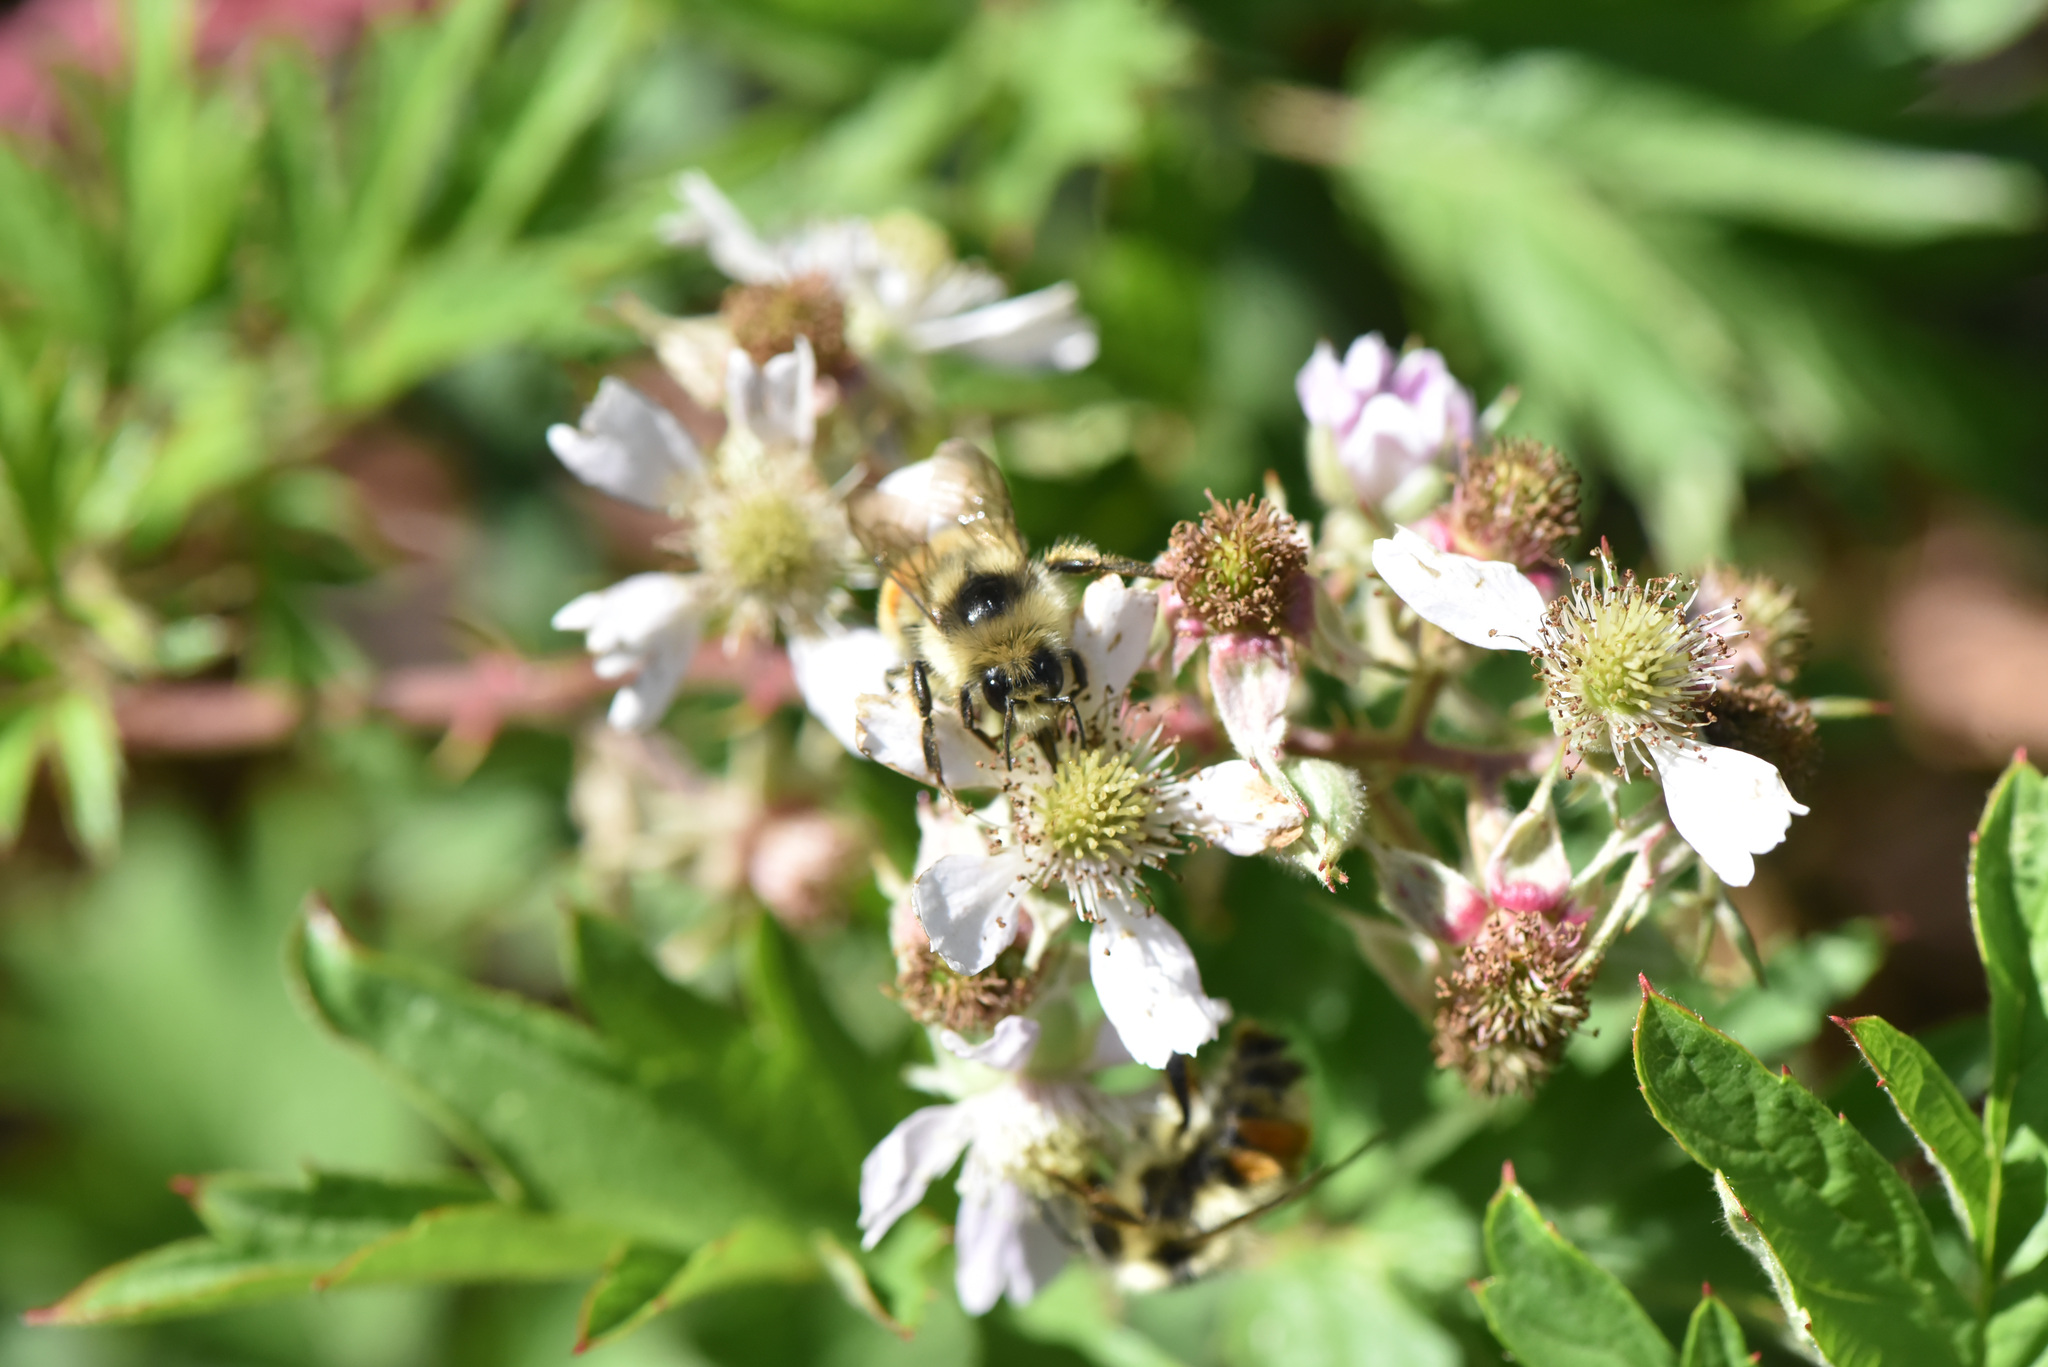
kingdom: Animalia
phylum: Arthropoda
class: Insecta
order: Hymenoptera
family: Apidae
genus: Bombus
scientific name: Bombus vancouverensis
